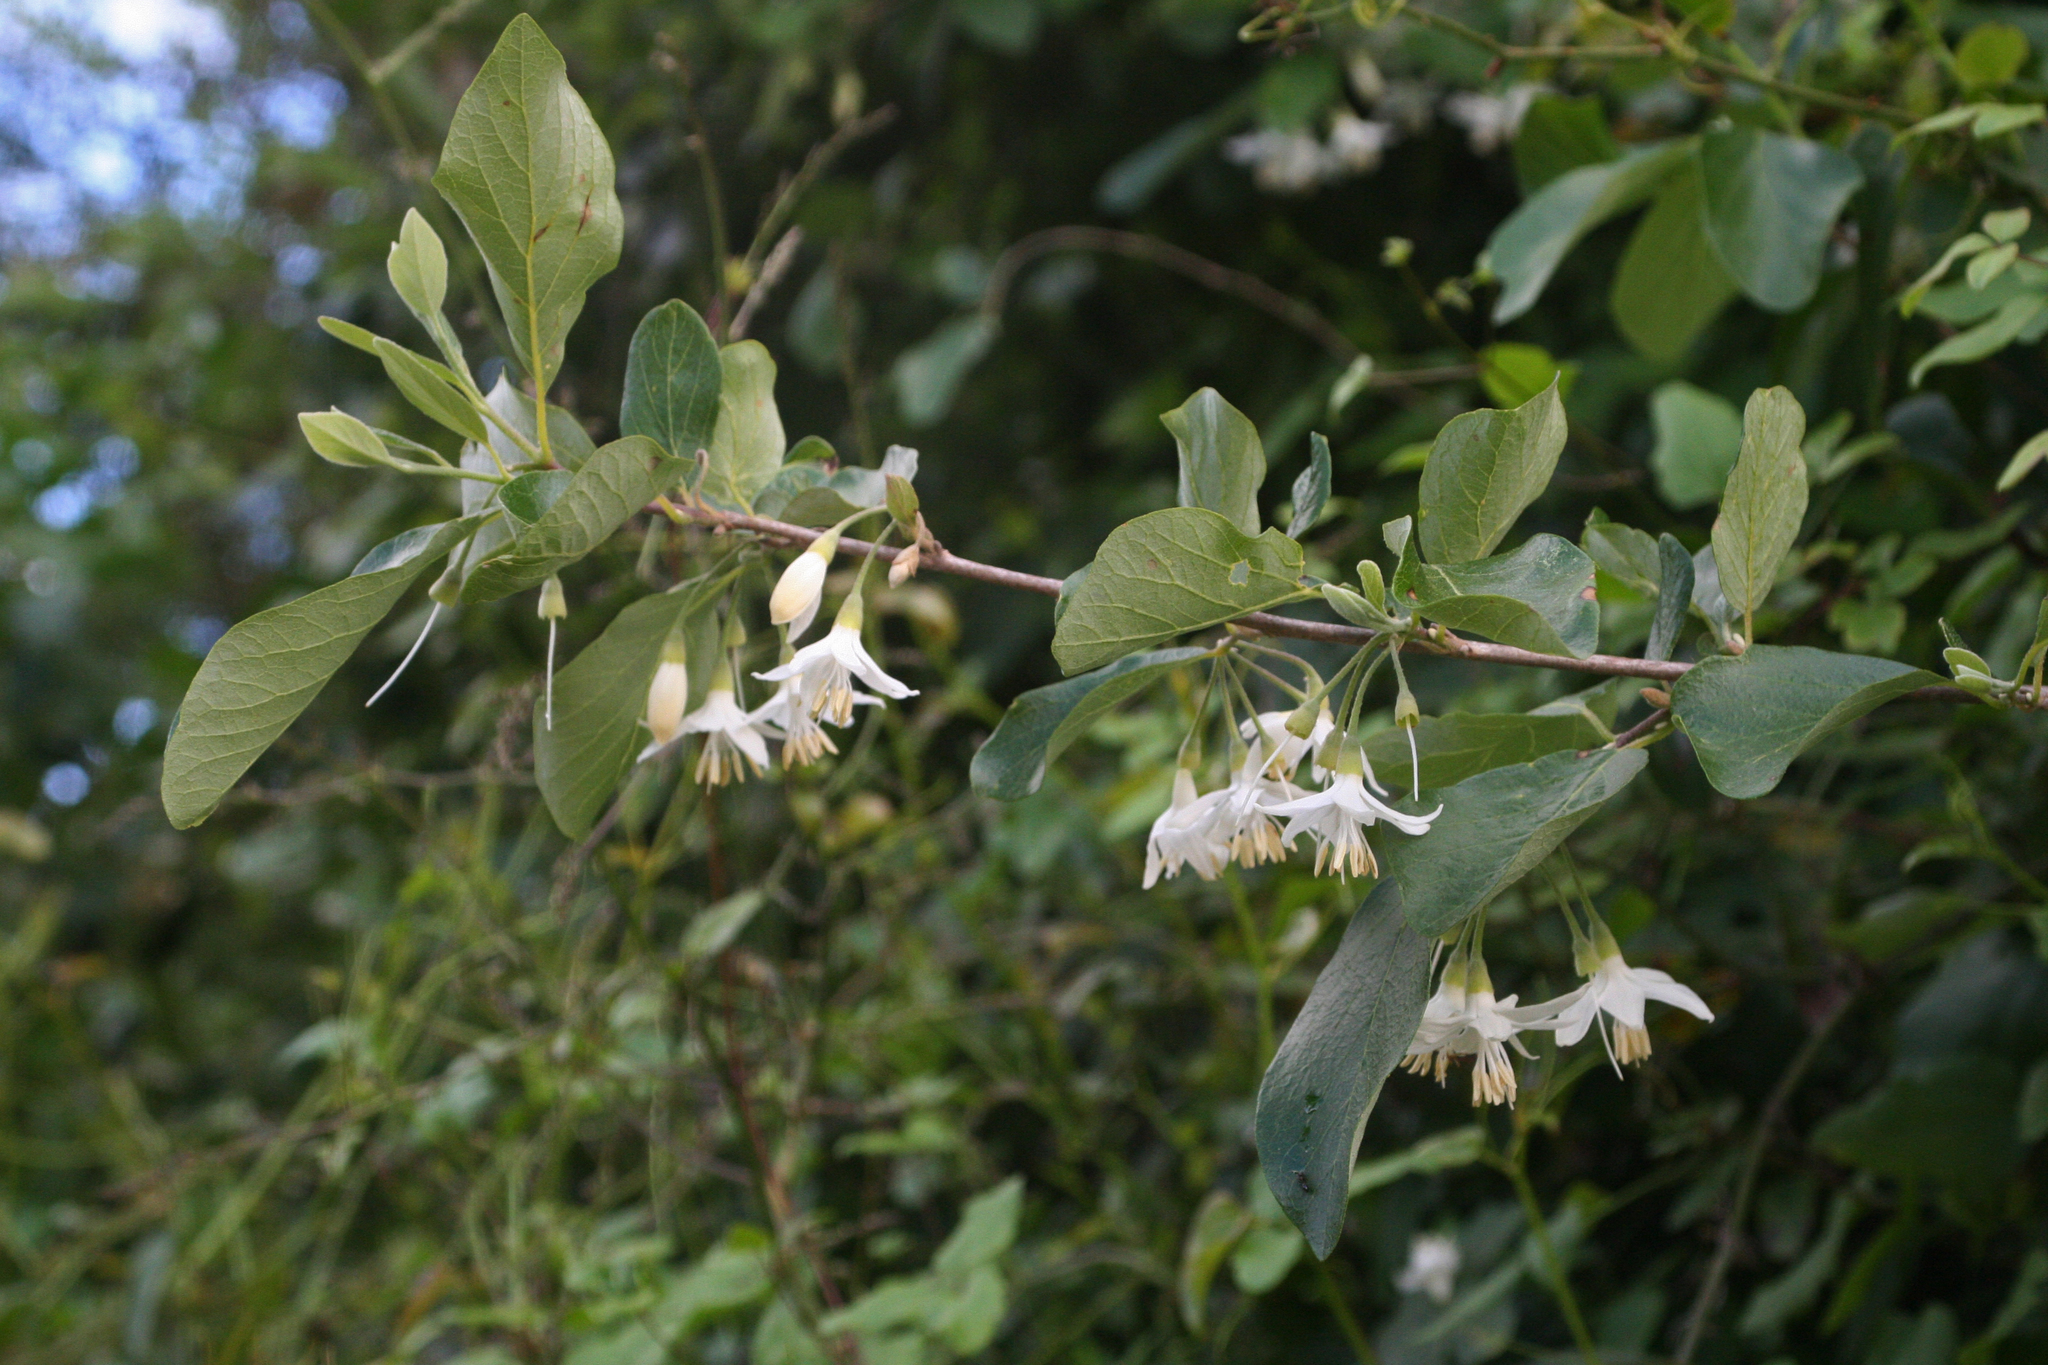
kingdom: Plantae
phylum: Tracheophyta
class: Magnoliopsida
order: Ericales
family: Styracaceae
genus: Styrax
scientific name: Styrax officinalis
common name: Storax
